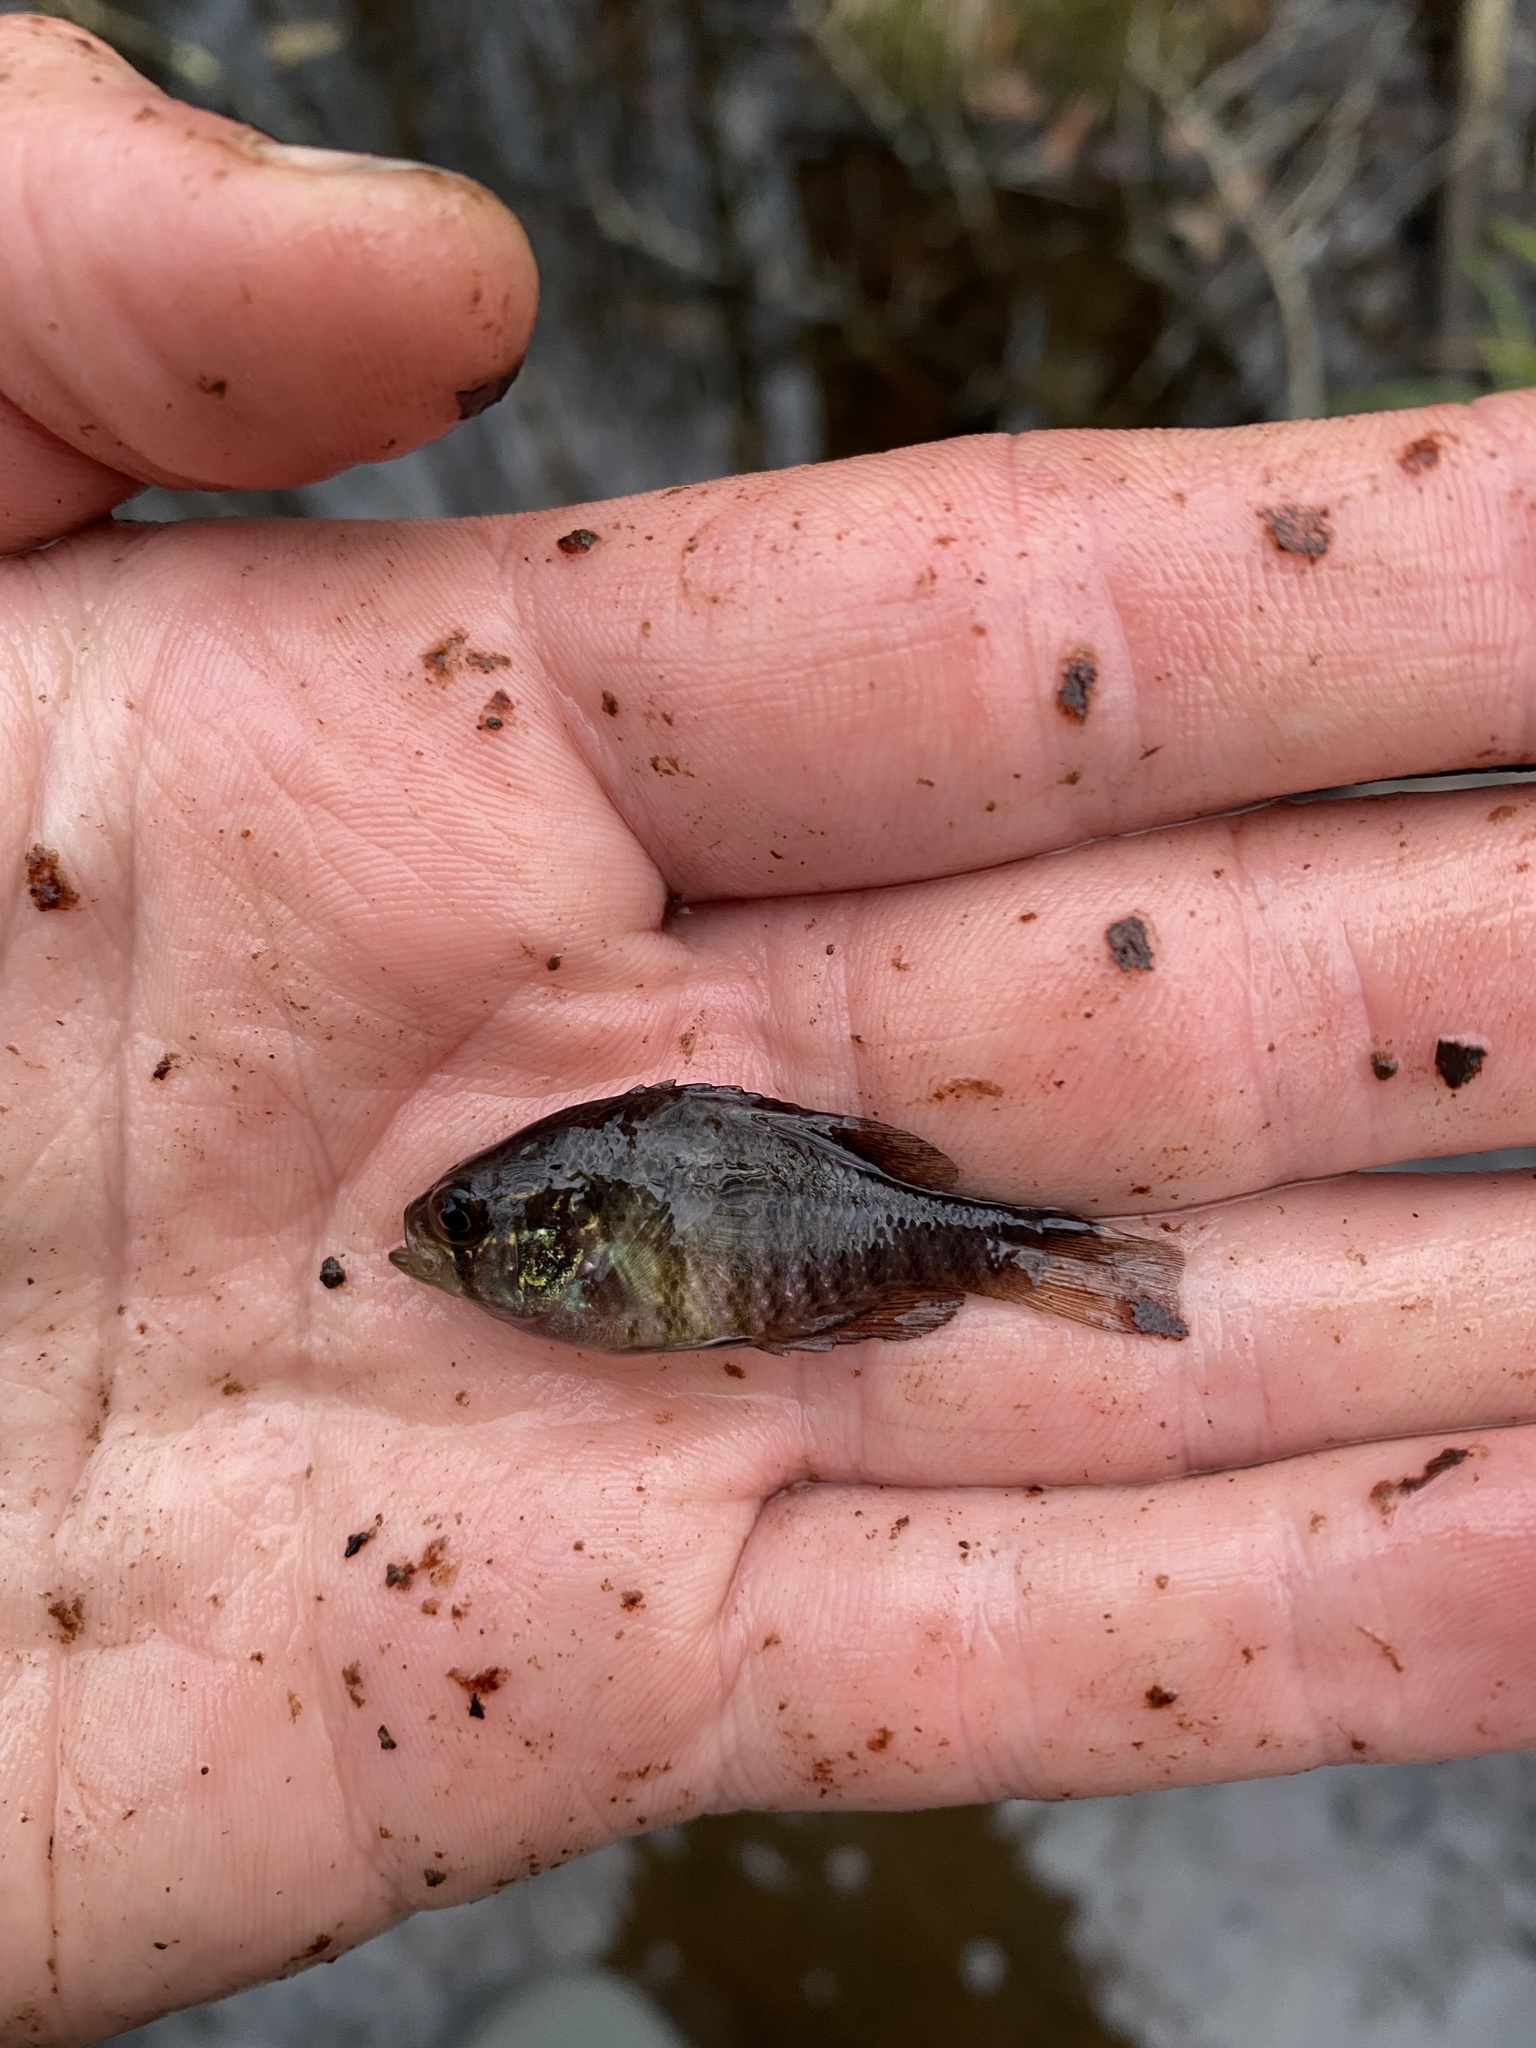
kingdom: Animalia
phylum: Chordata
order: Perciformes
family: Centrarchidae
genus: Enneacanthus
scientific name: Enneacanthus obesus
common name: Banded sunfish
